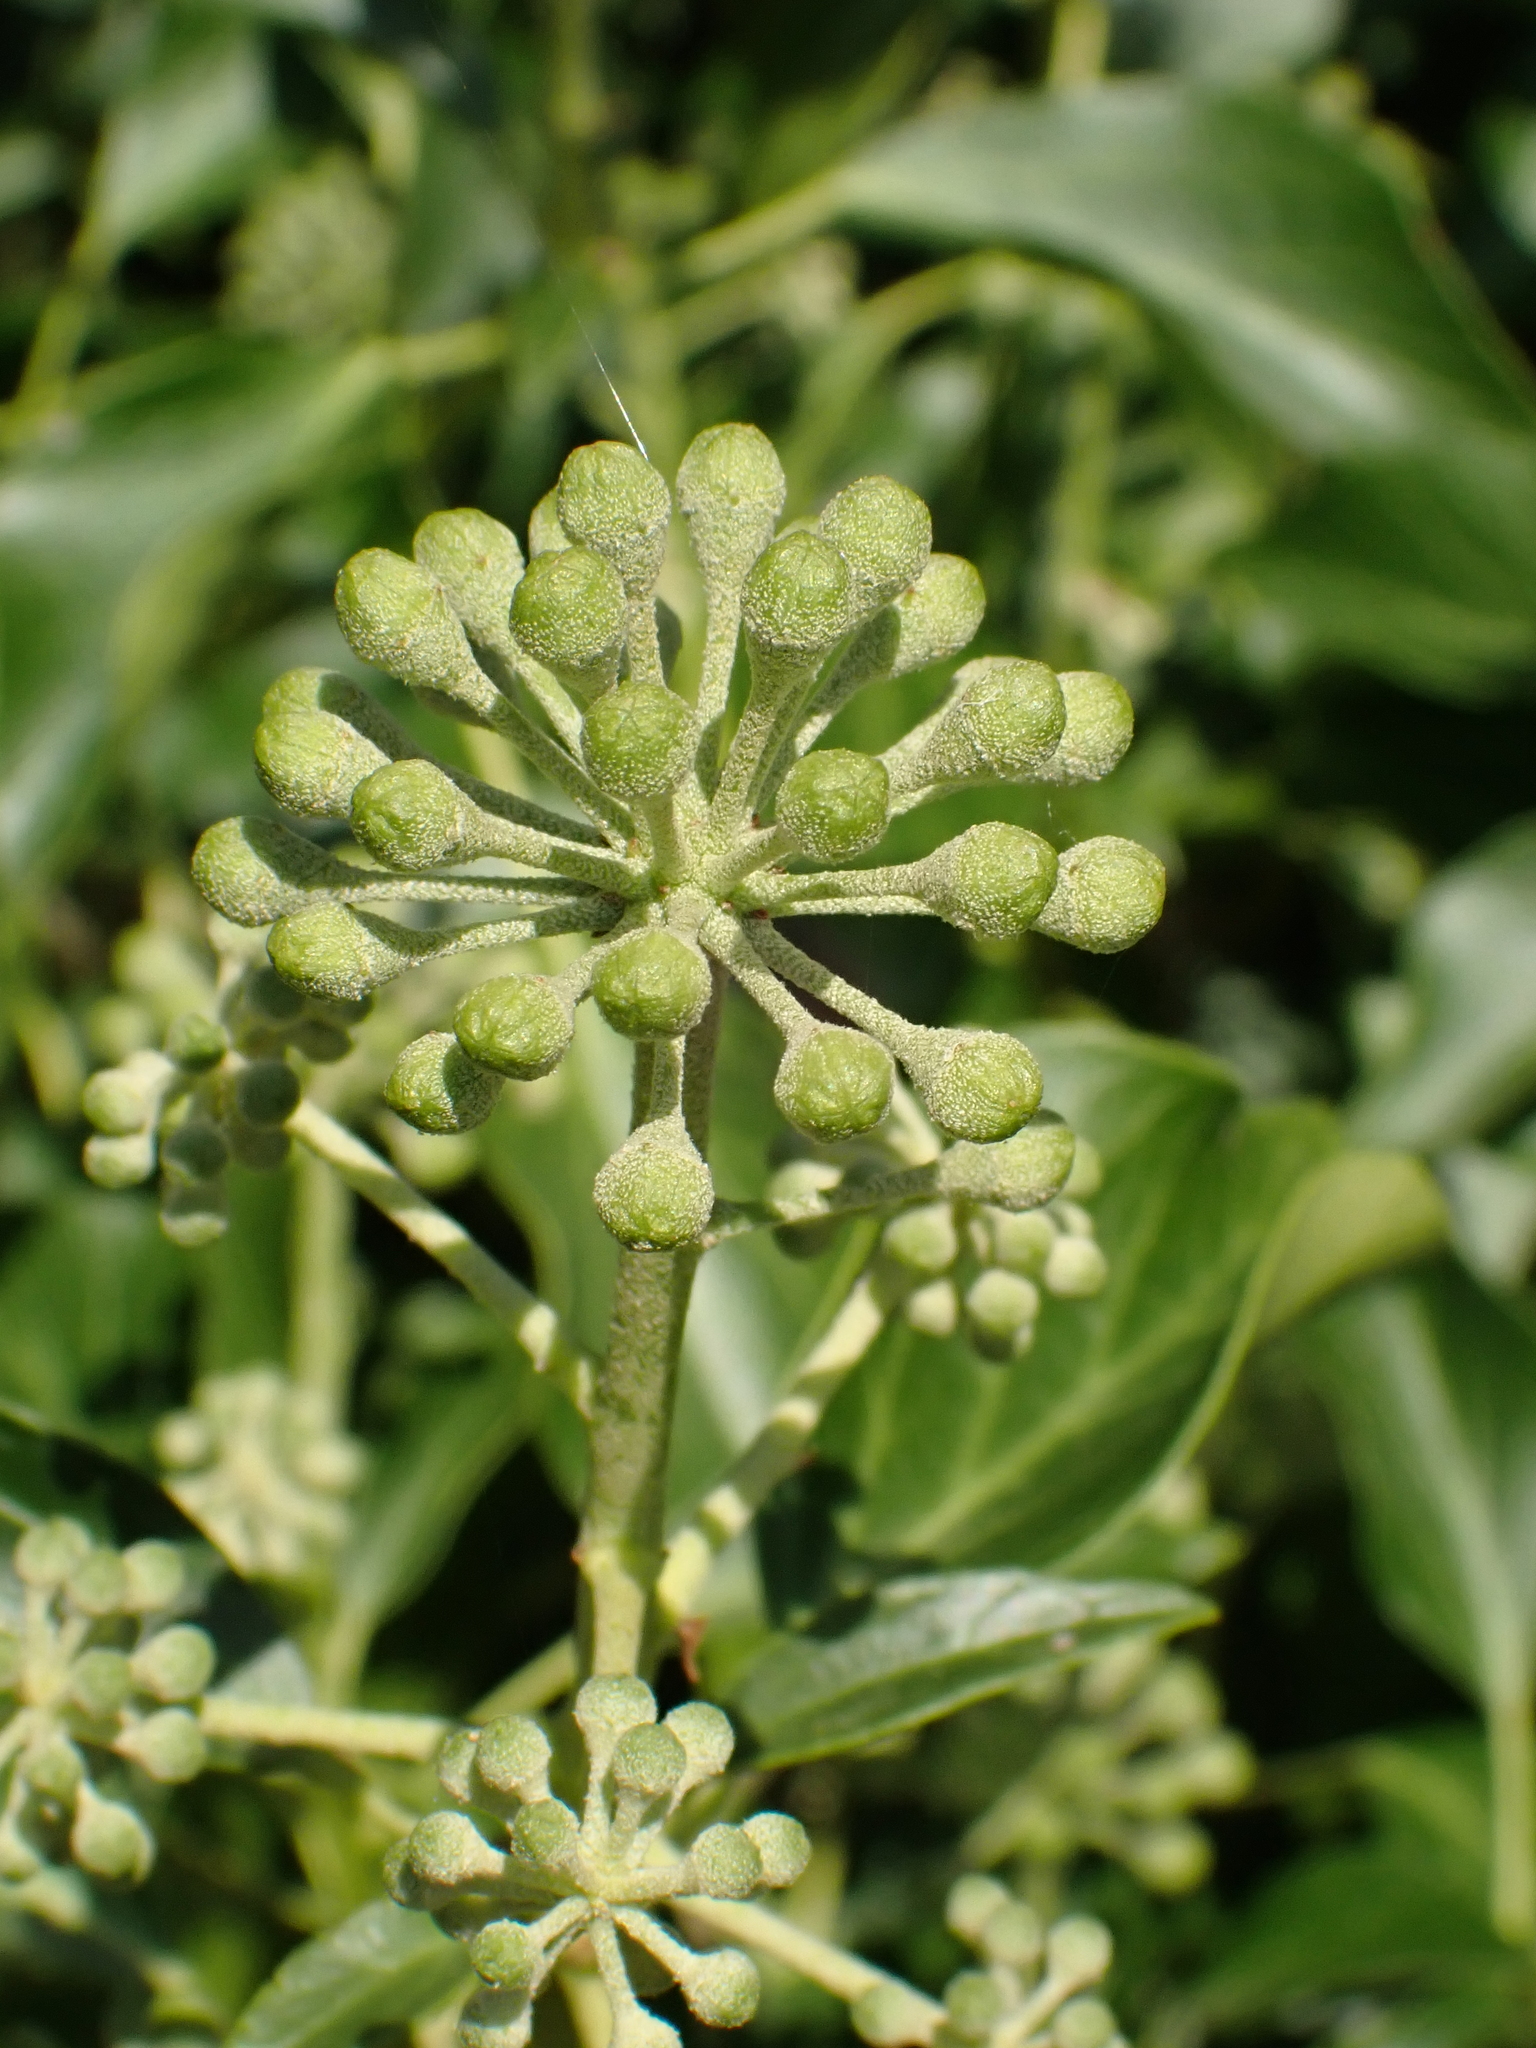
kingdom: Plantae
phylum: Tracheophyta
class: Magnoliopsida
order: Apiales
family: Araliaceae
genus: Hedera
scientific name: Hedera helix
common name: Ivy
